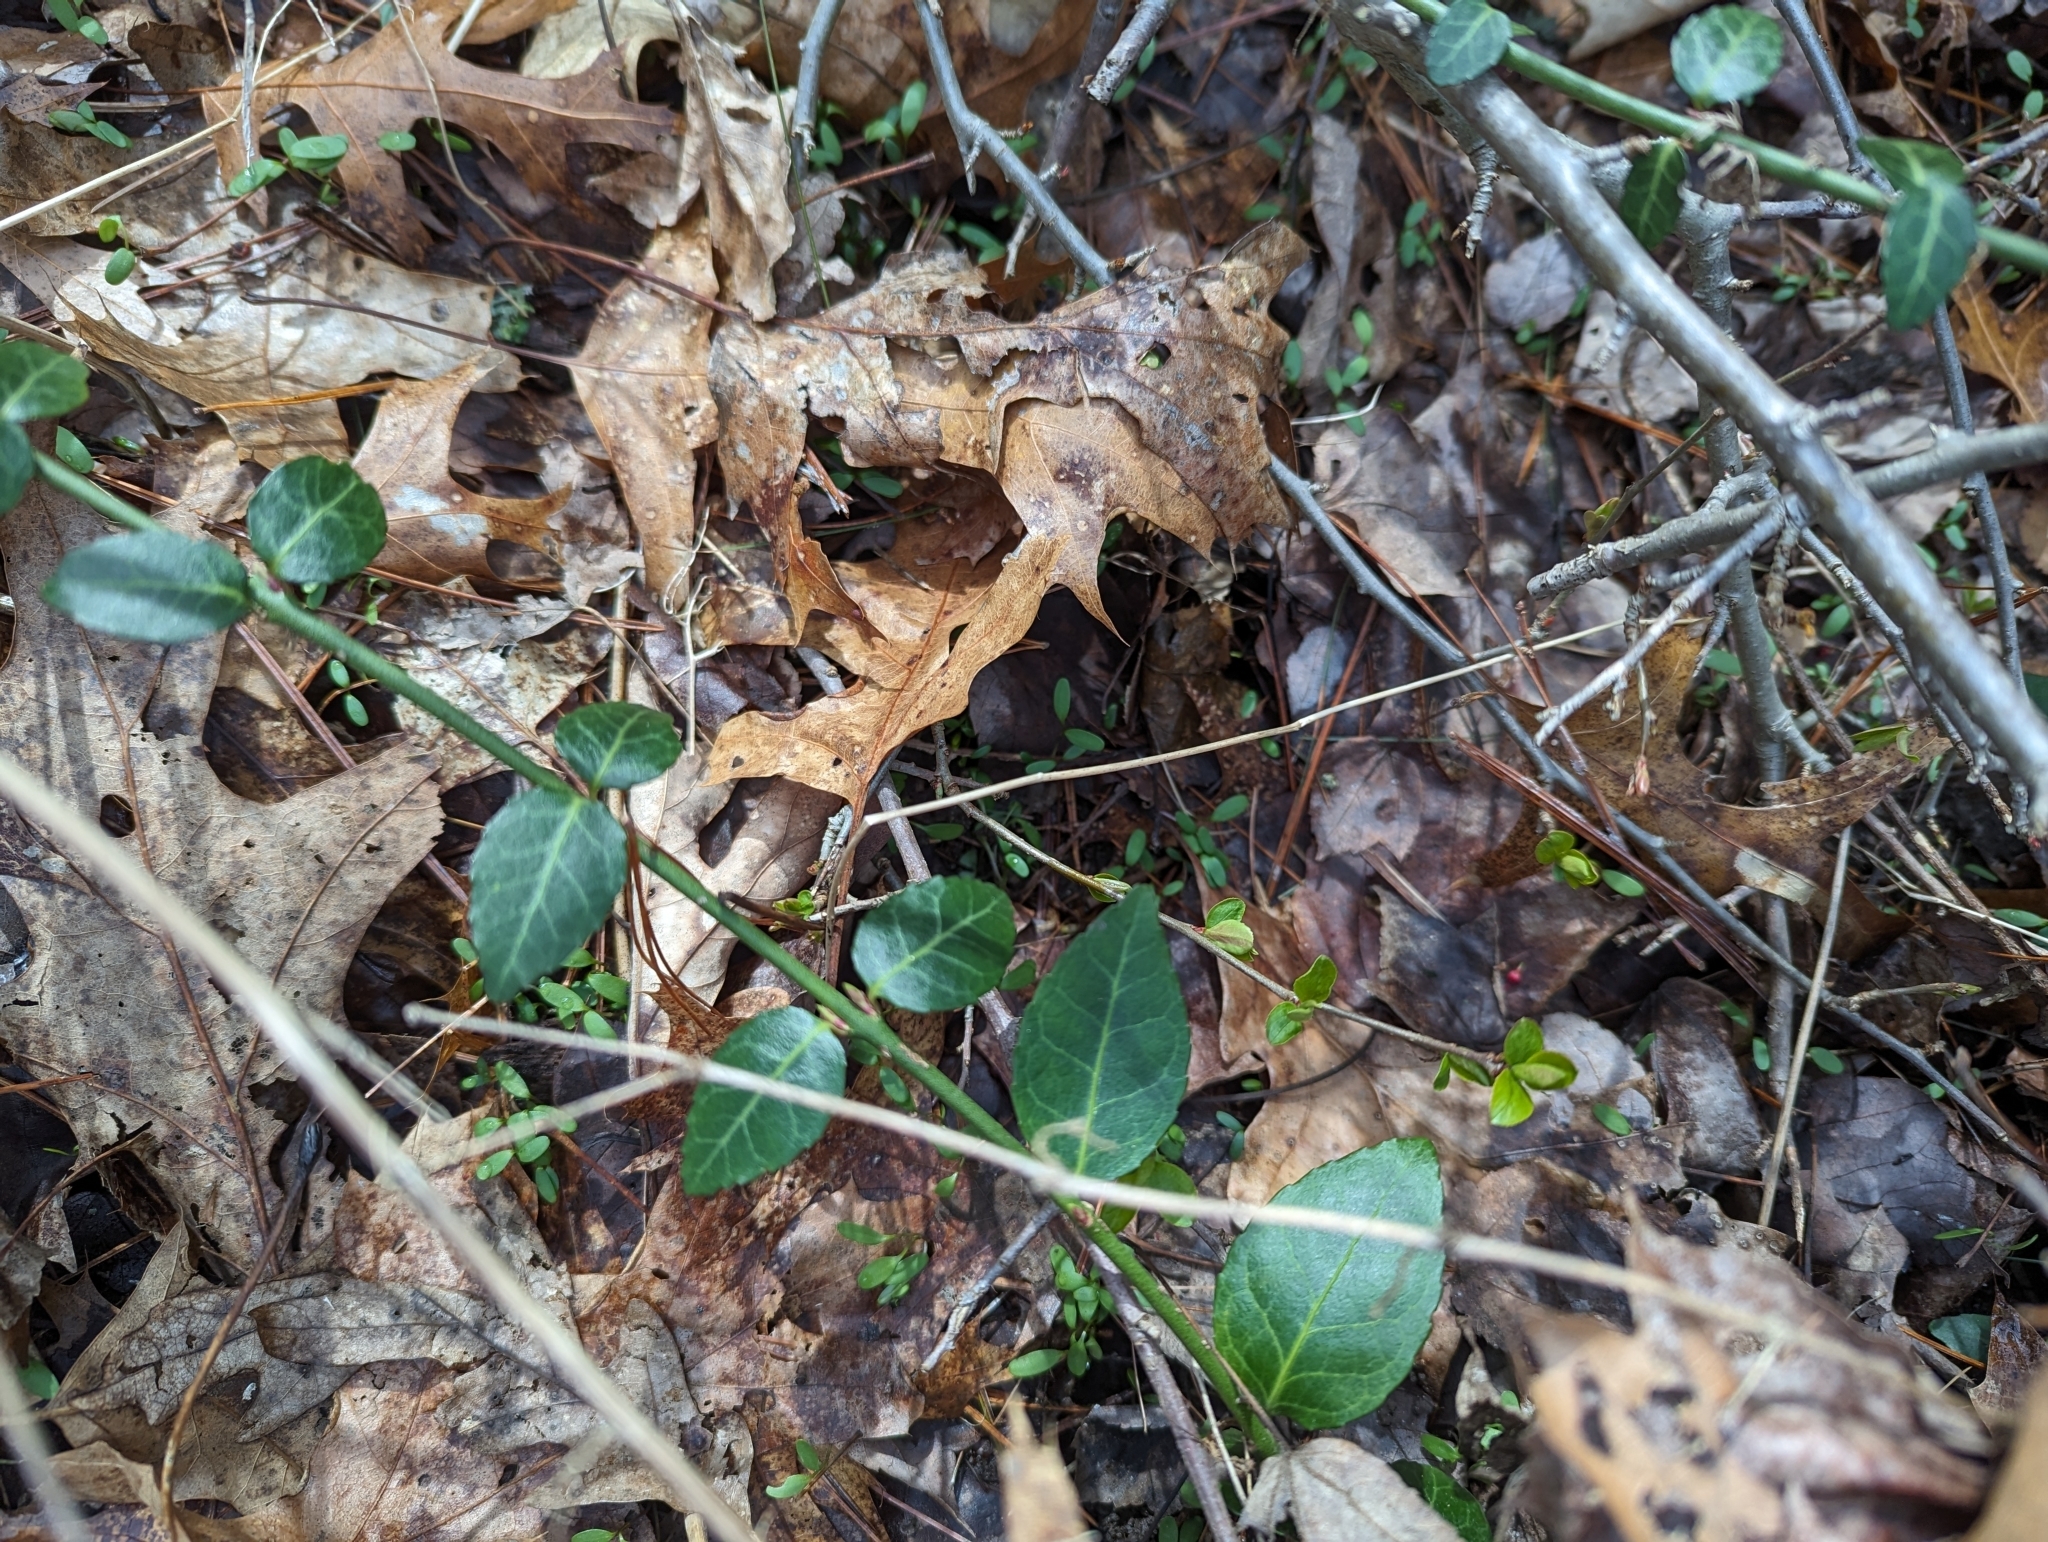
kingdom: Plantae
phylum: Tracheophyta
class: Magnoliopsida
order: Celastrales
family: Celastraceae
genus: Euonymus
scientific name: Euonymus fortunei
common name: Climbing euonymus
